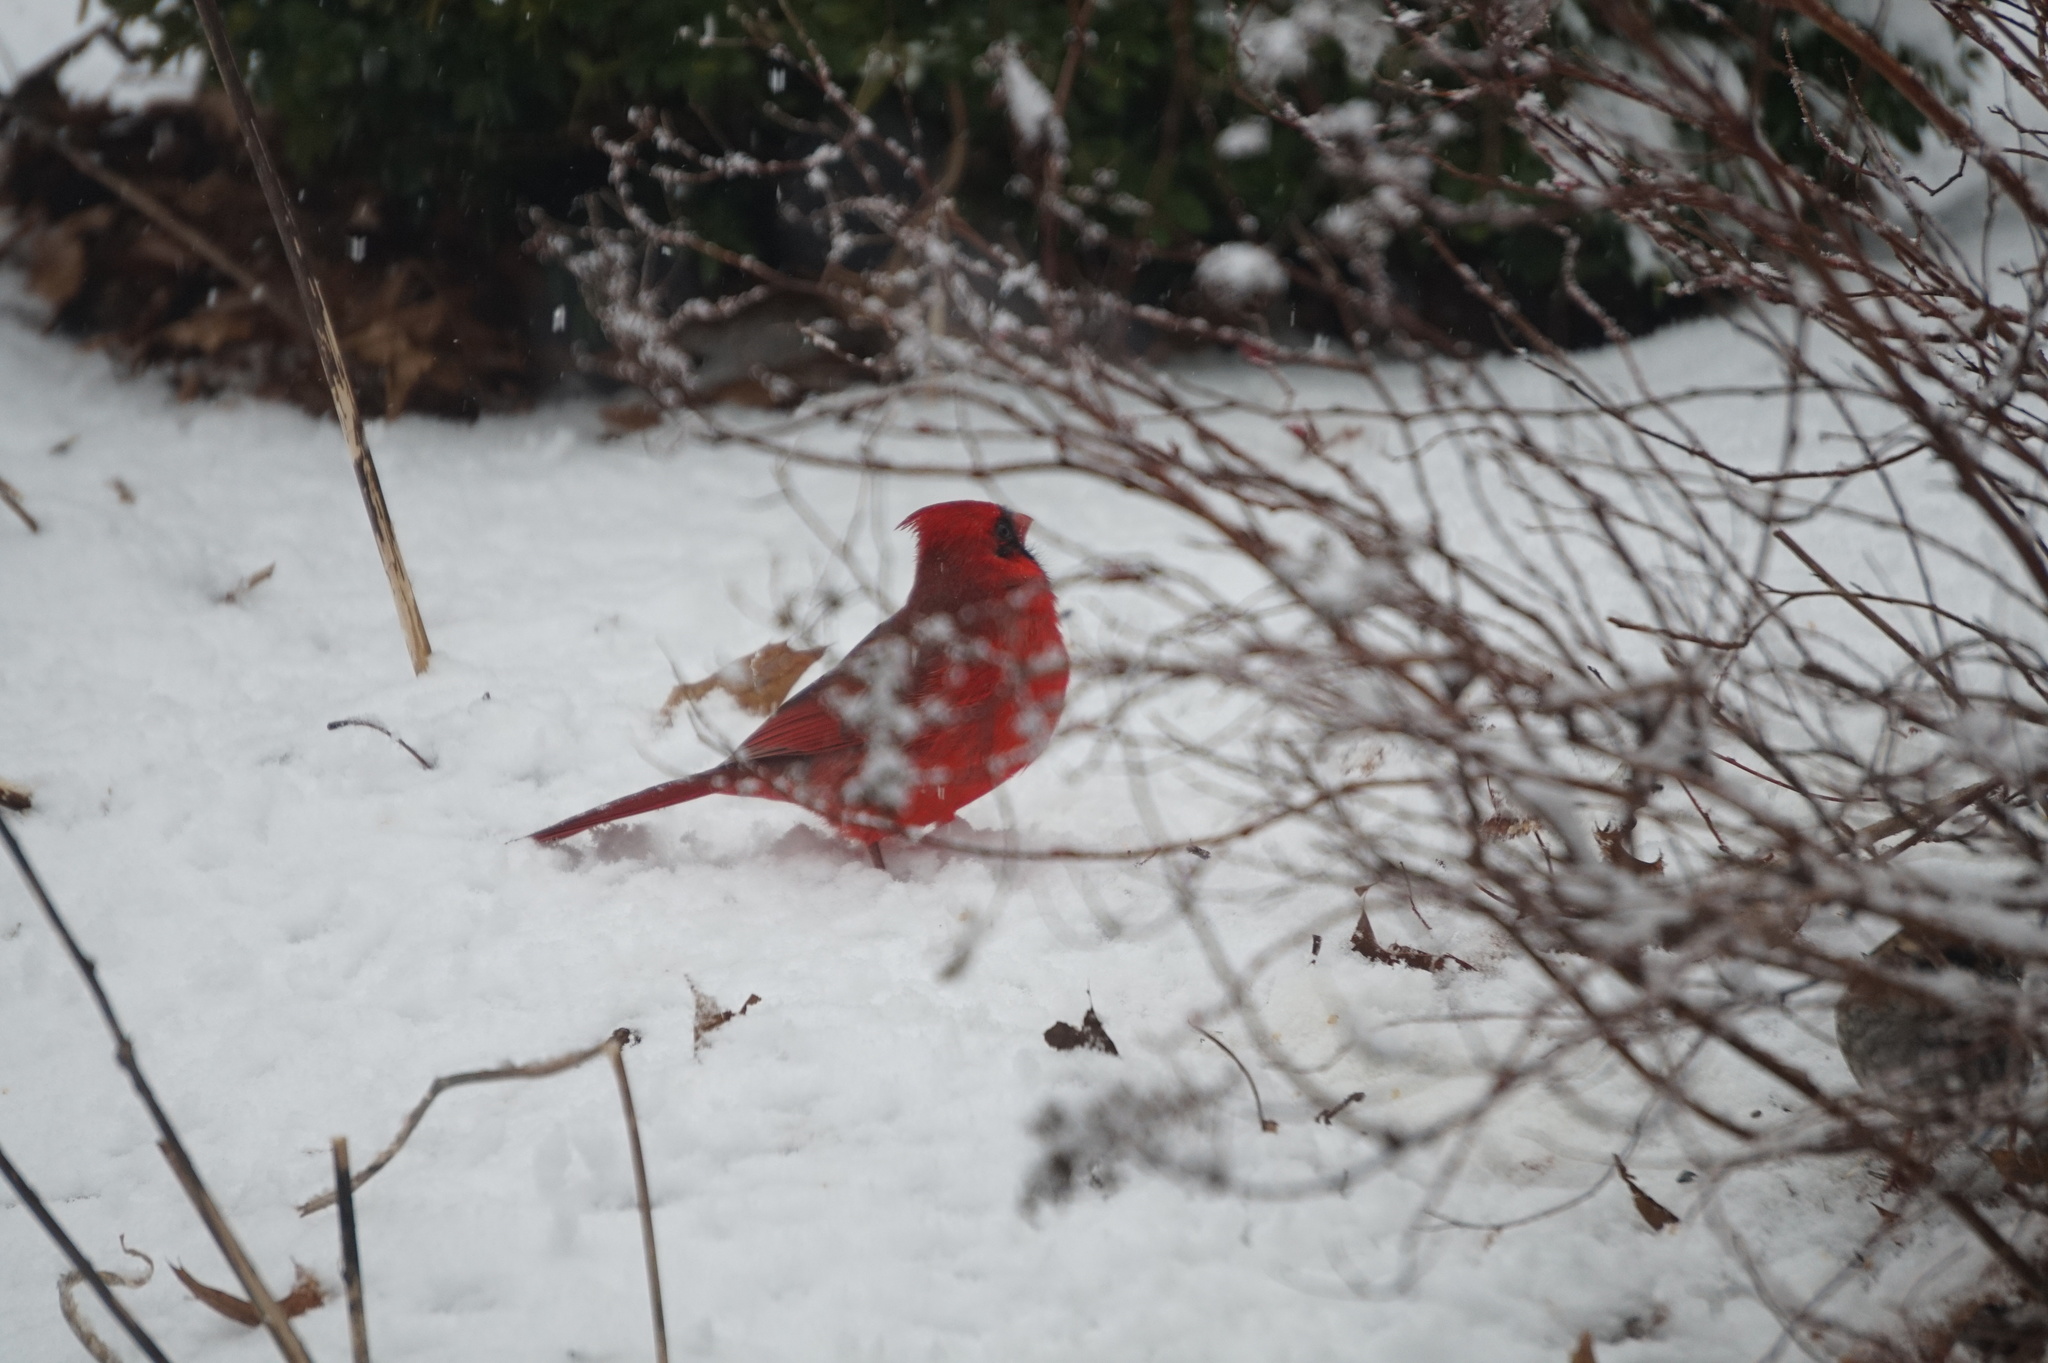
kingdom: Animalia
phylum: Chordata
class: Aves
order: Passeriformes
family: Cardinalidae
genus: Cardinalis
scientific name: Cardinalis cardinalis
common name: Northern cardinal
